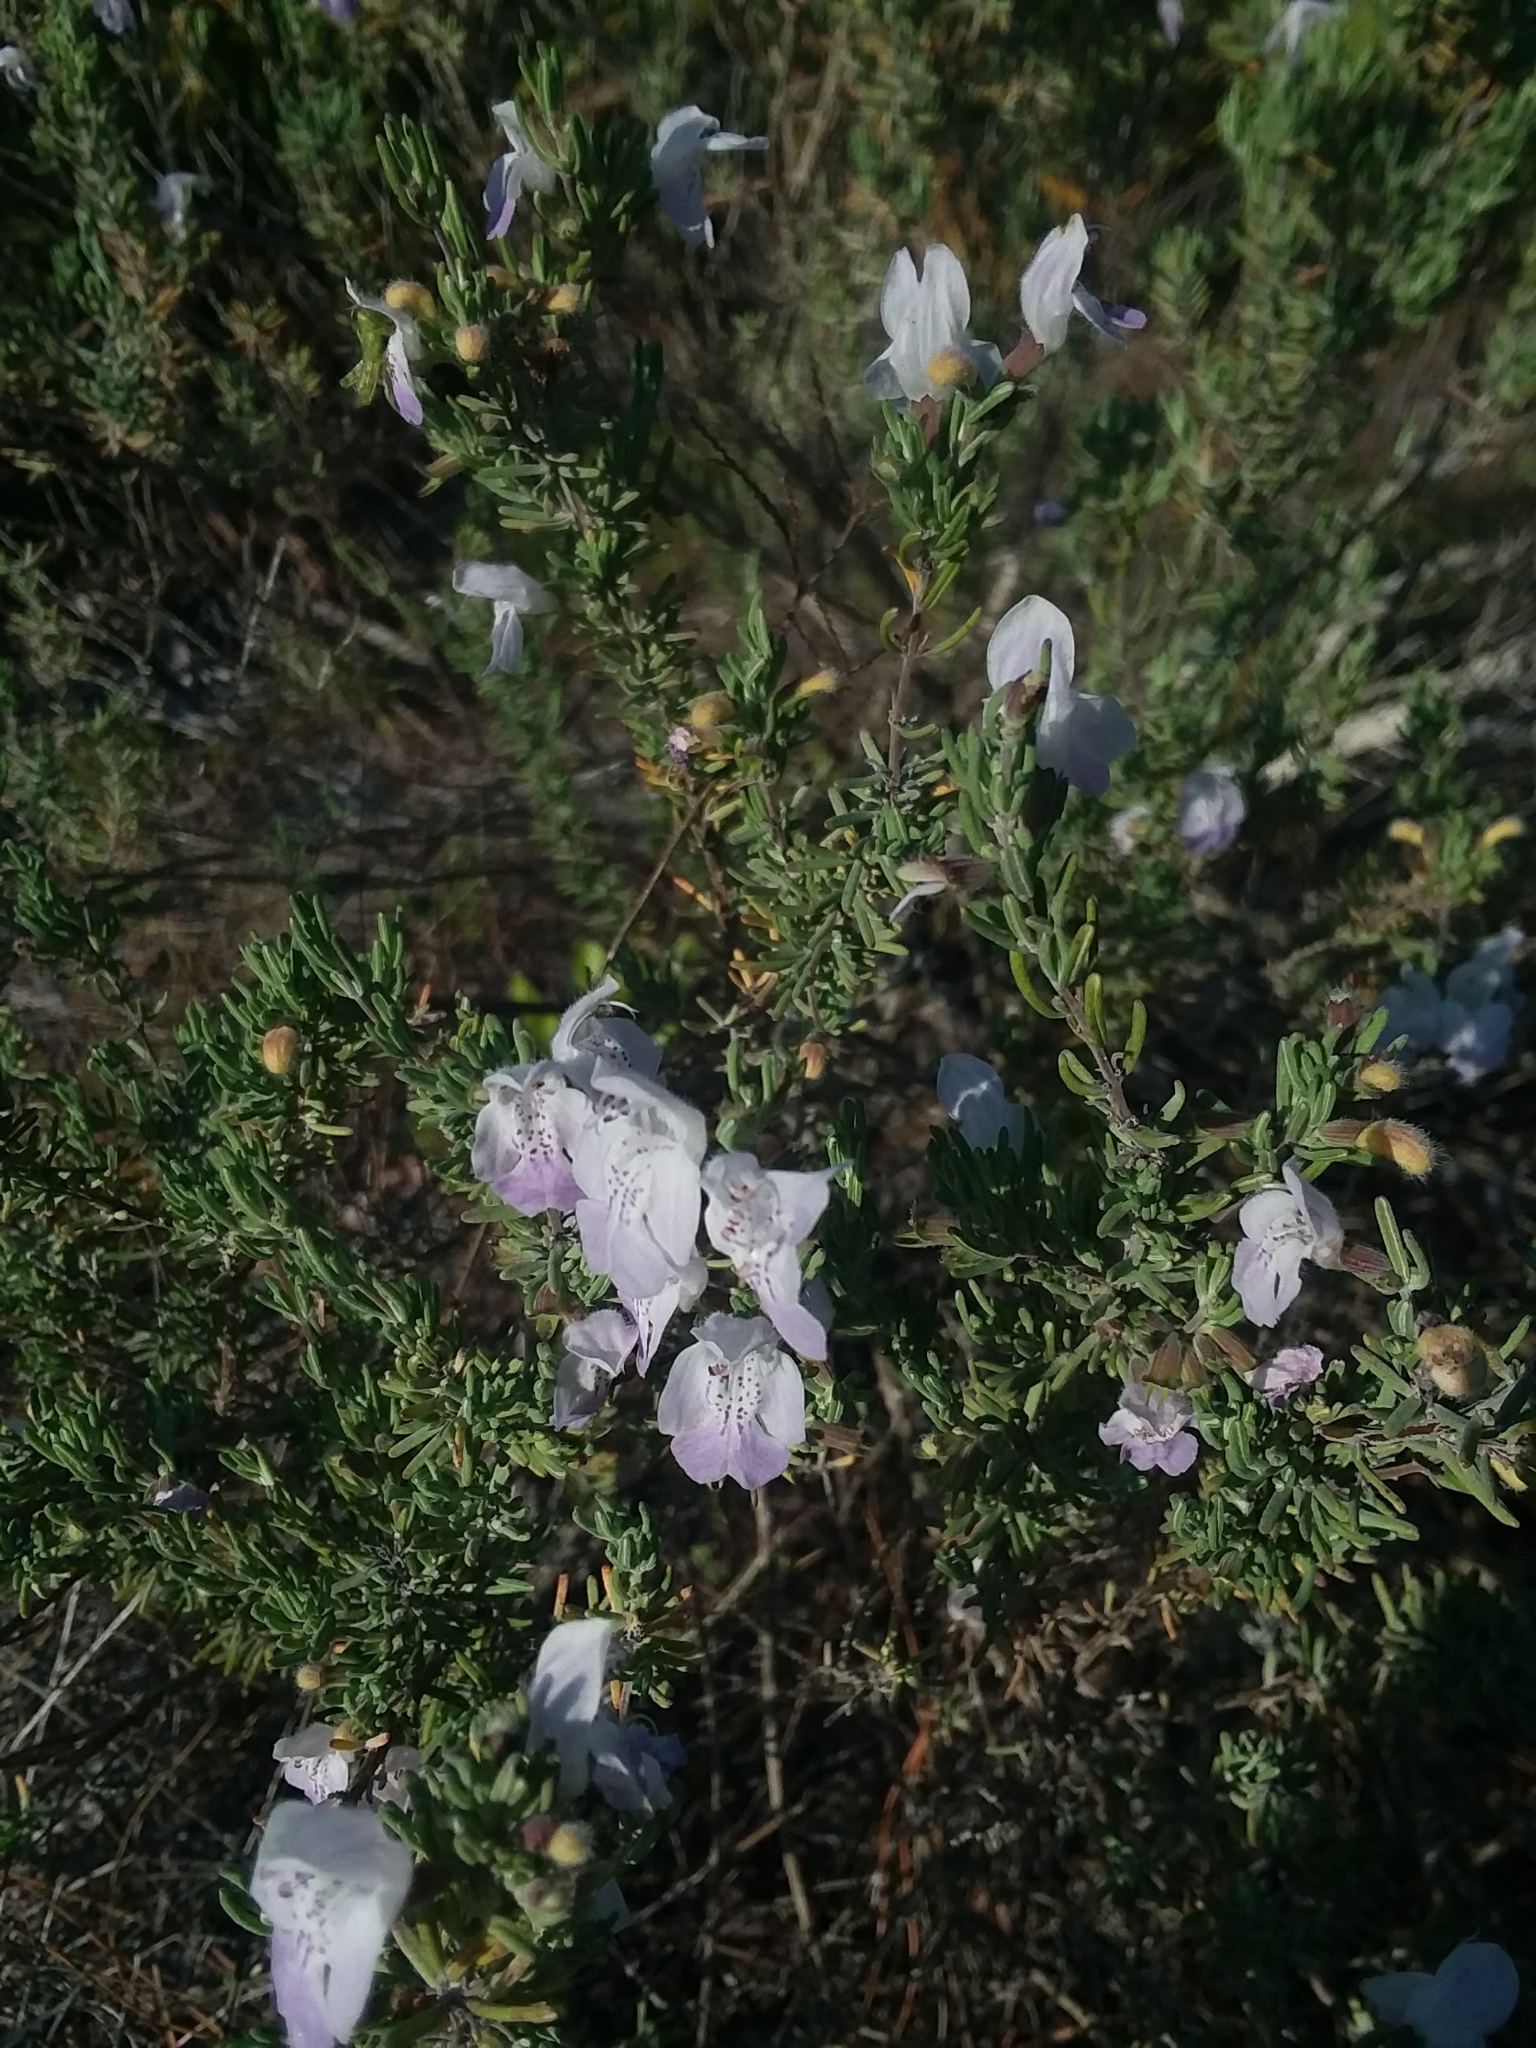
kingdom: Plantae
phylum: Tracheophyta
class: Magnoliopsida
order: Lamiales
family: Lamiaceae
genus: Conradina
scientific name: Conradina canescens
